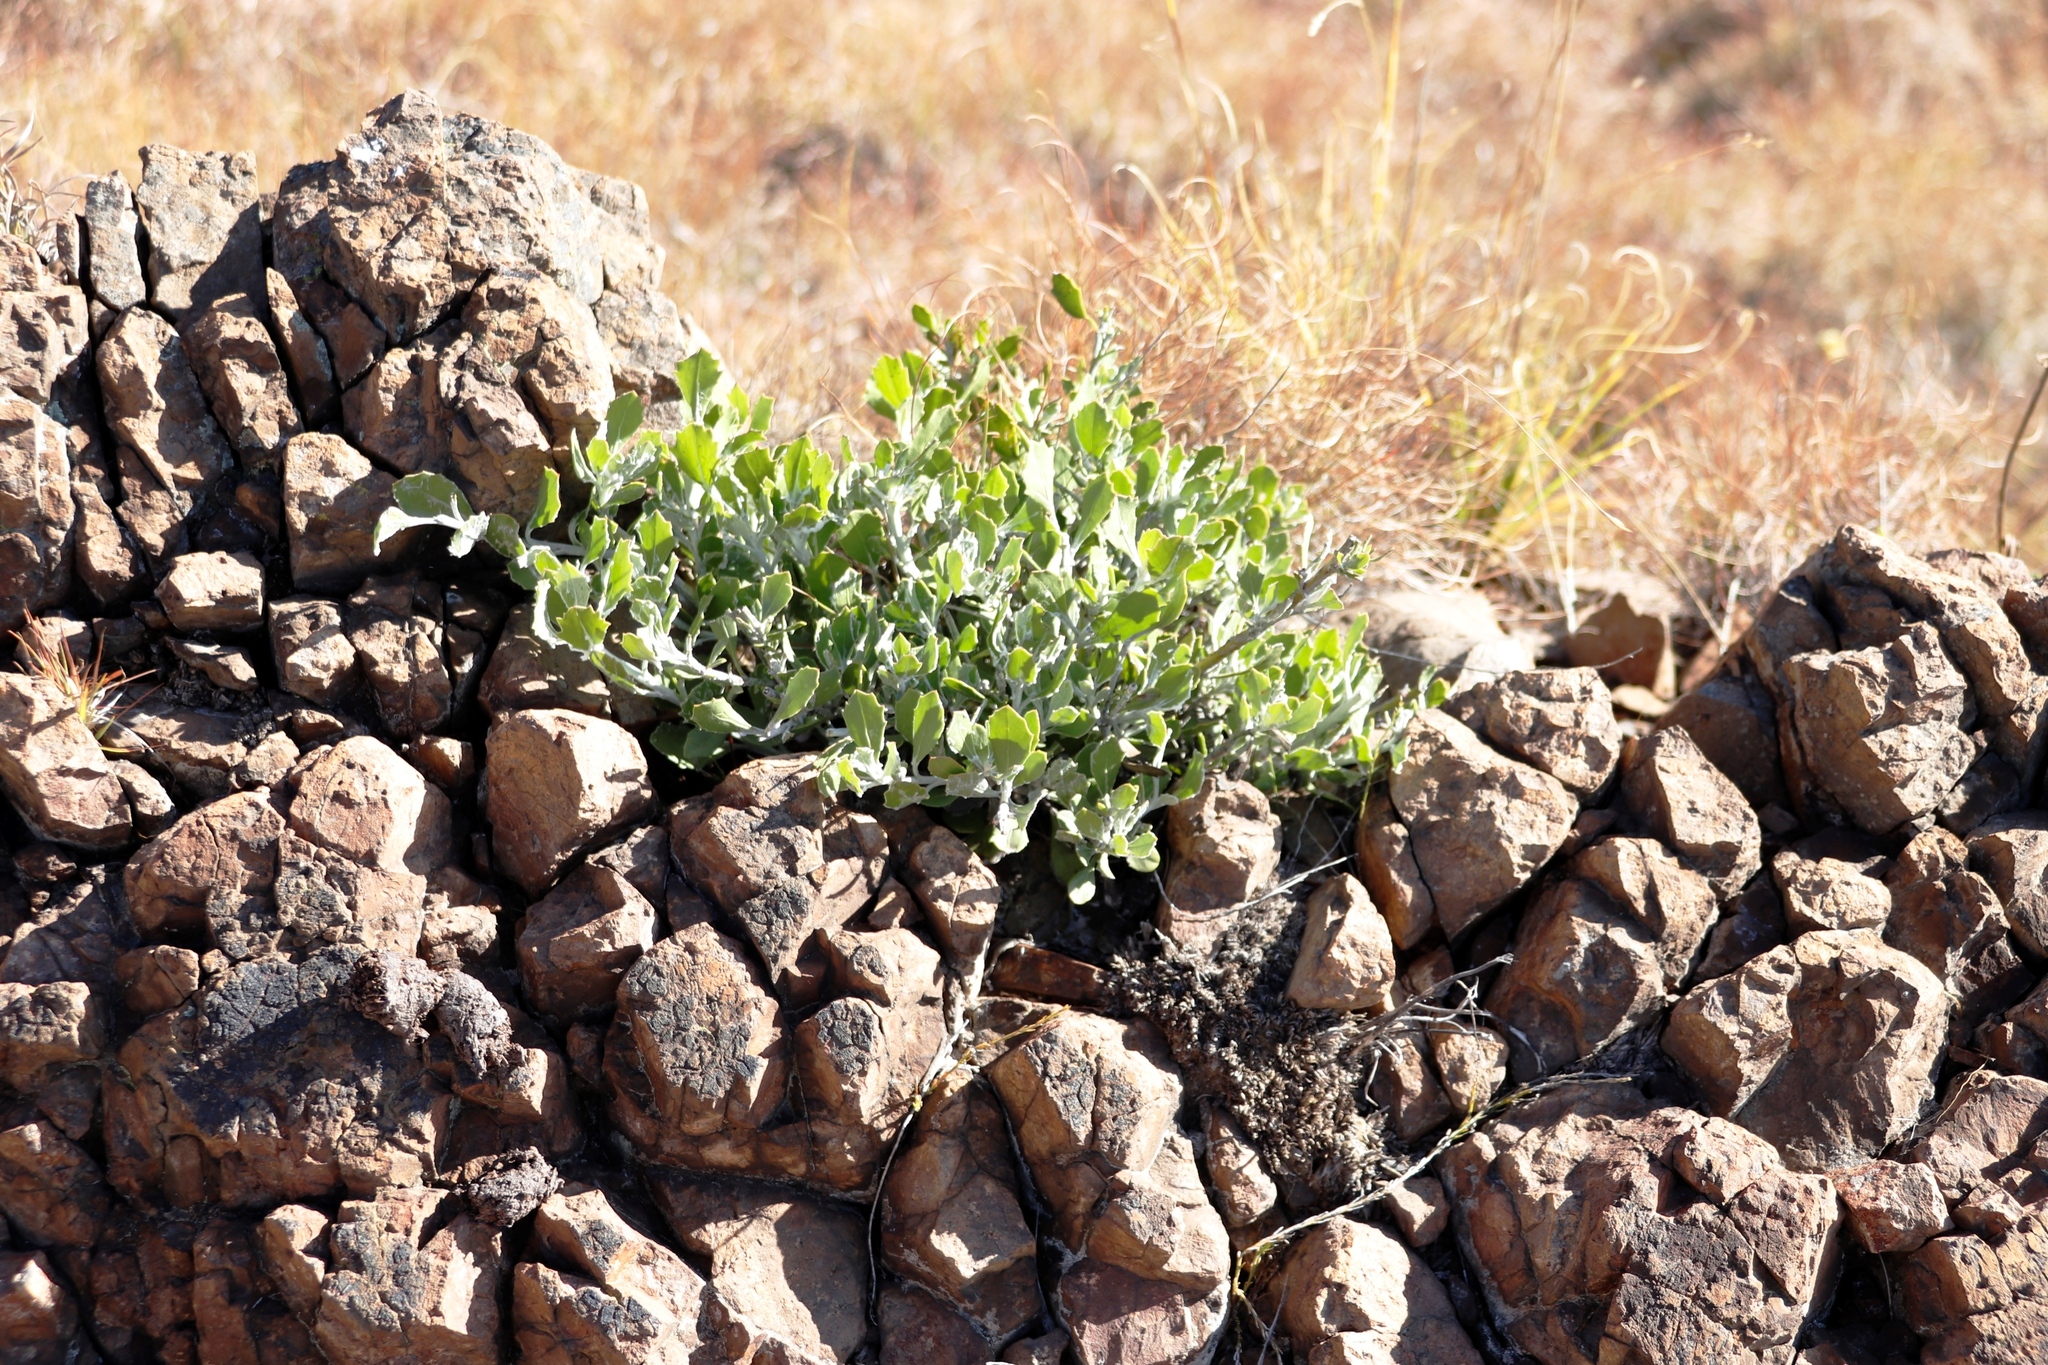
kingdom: Plantae
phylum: Tracheophyta
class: Magnoliopsida
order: Asterales
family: Asteraceae
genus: Osteospermum
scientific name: Osteospermum moniliferum
